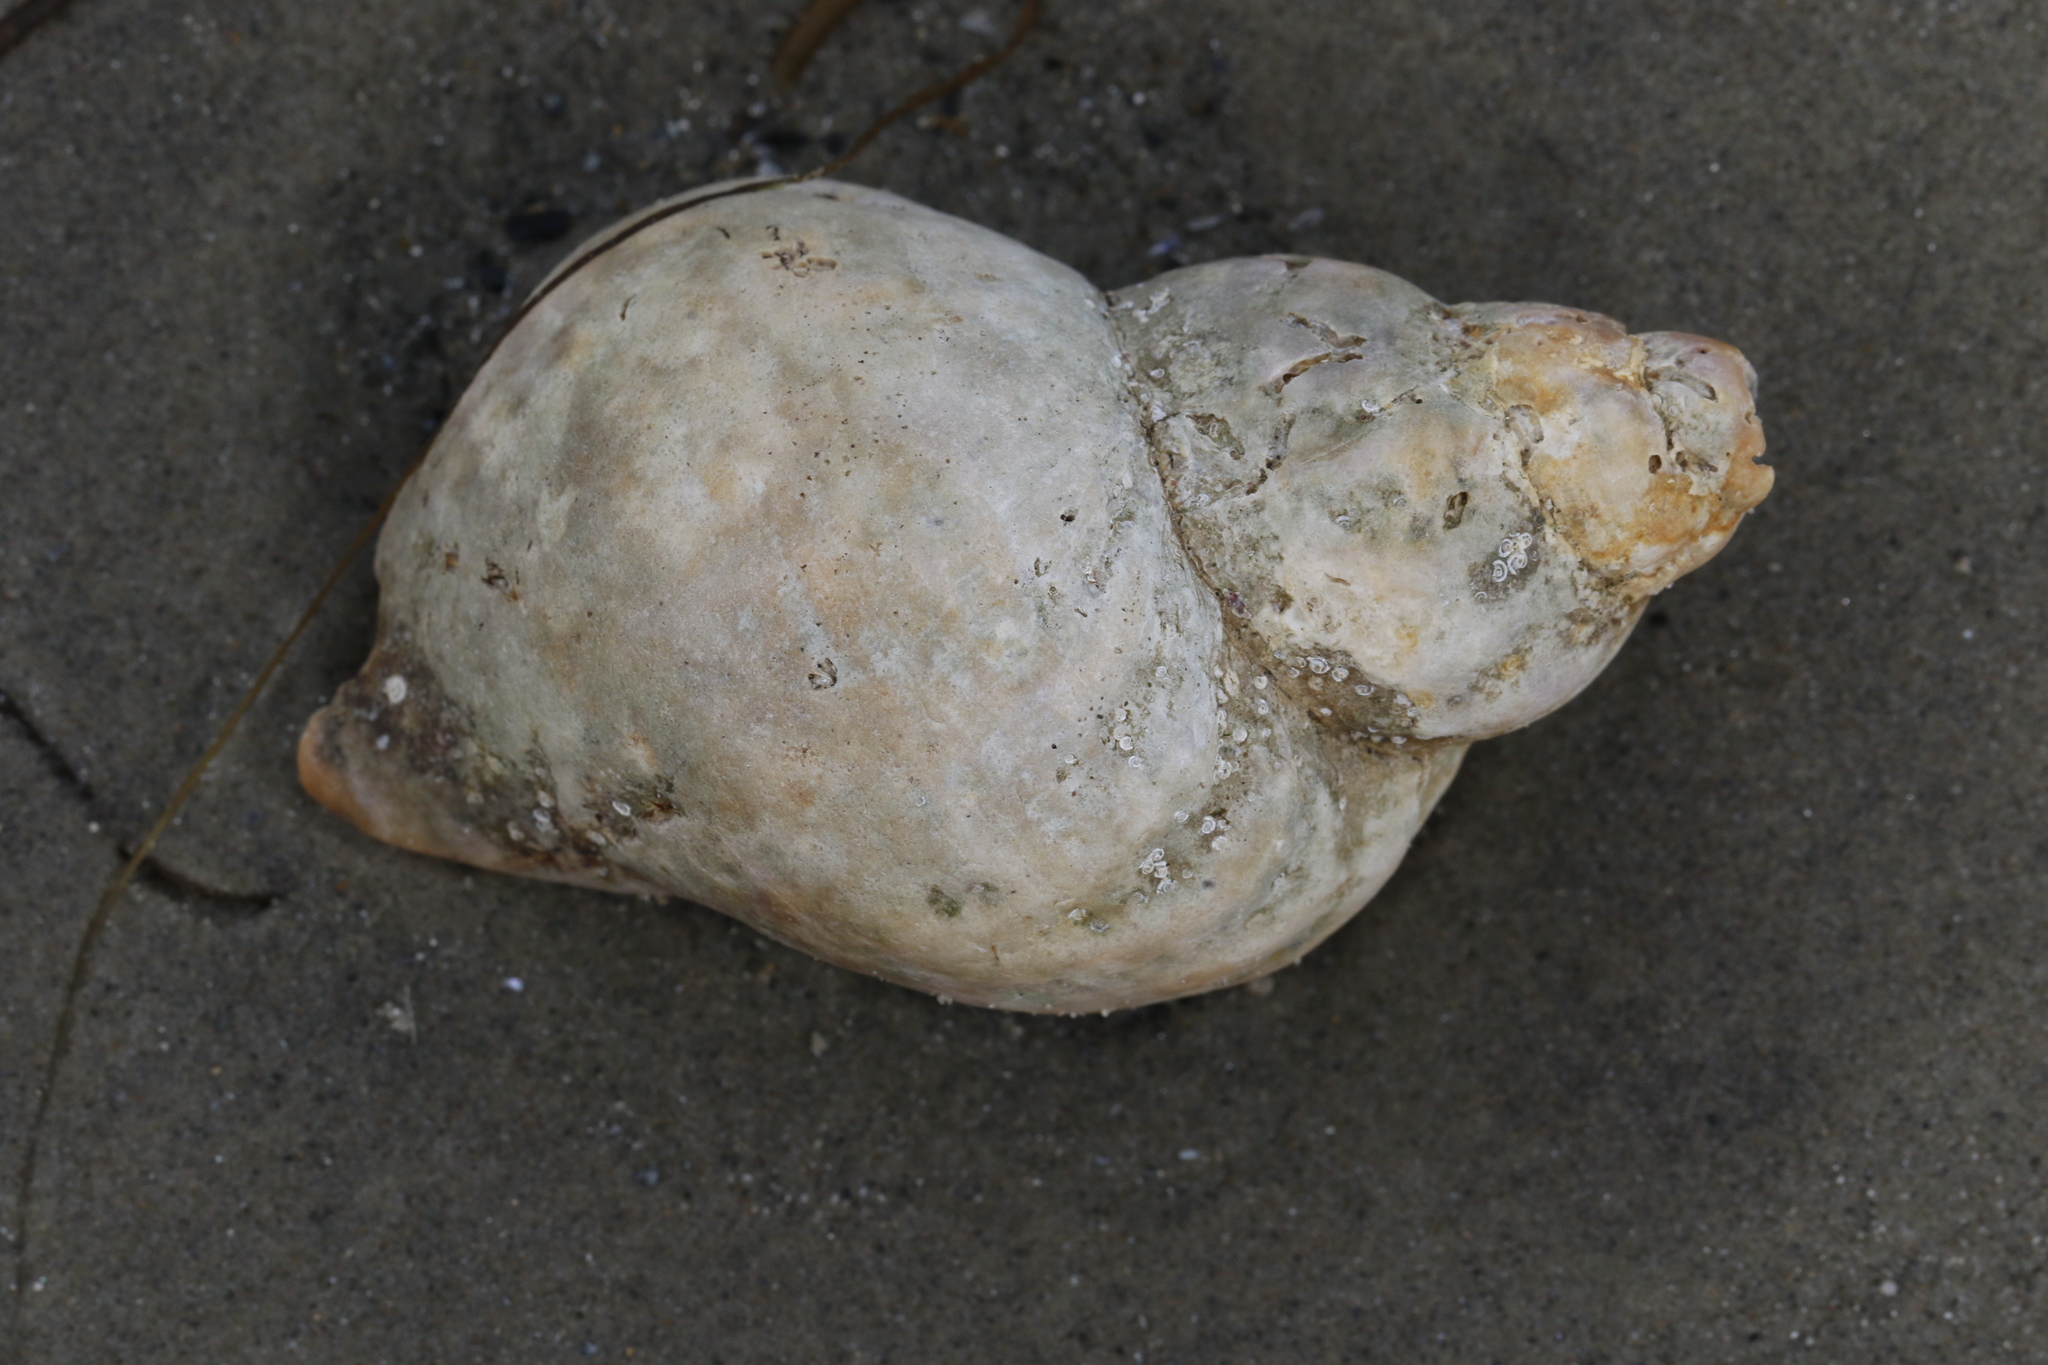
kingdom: Animalia
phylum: Mollusca
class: Gastropoda
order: Neogastropoda
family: Buccinidae
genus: Buccinum
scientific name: Buccinum undatum
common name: Common whelk
